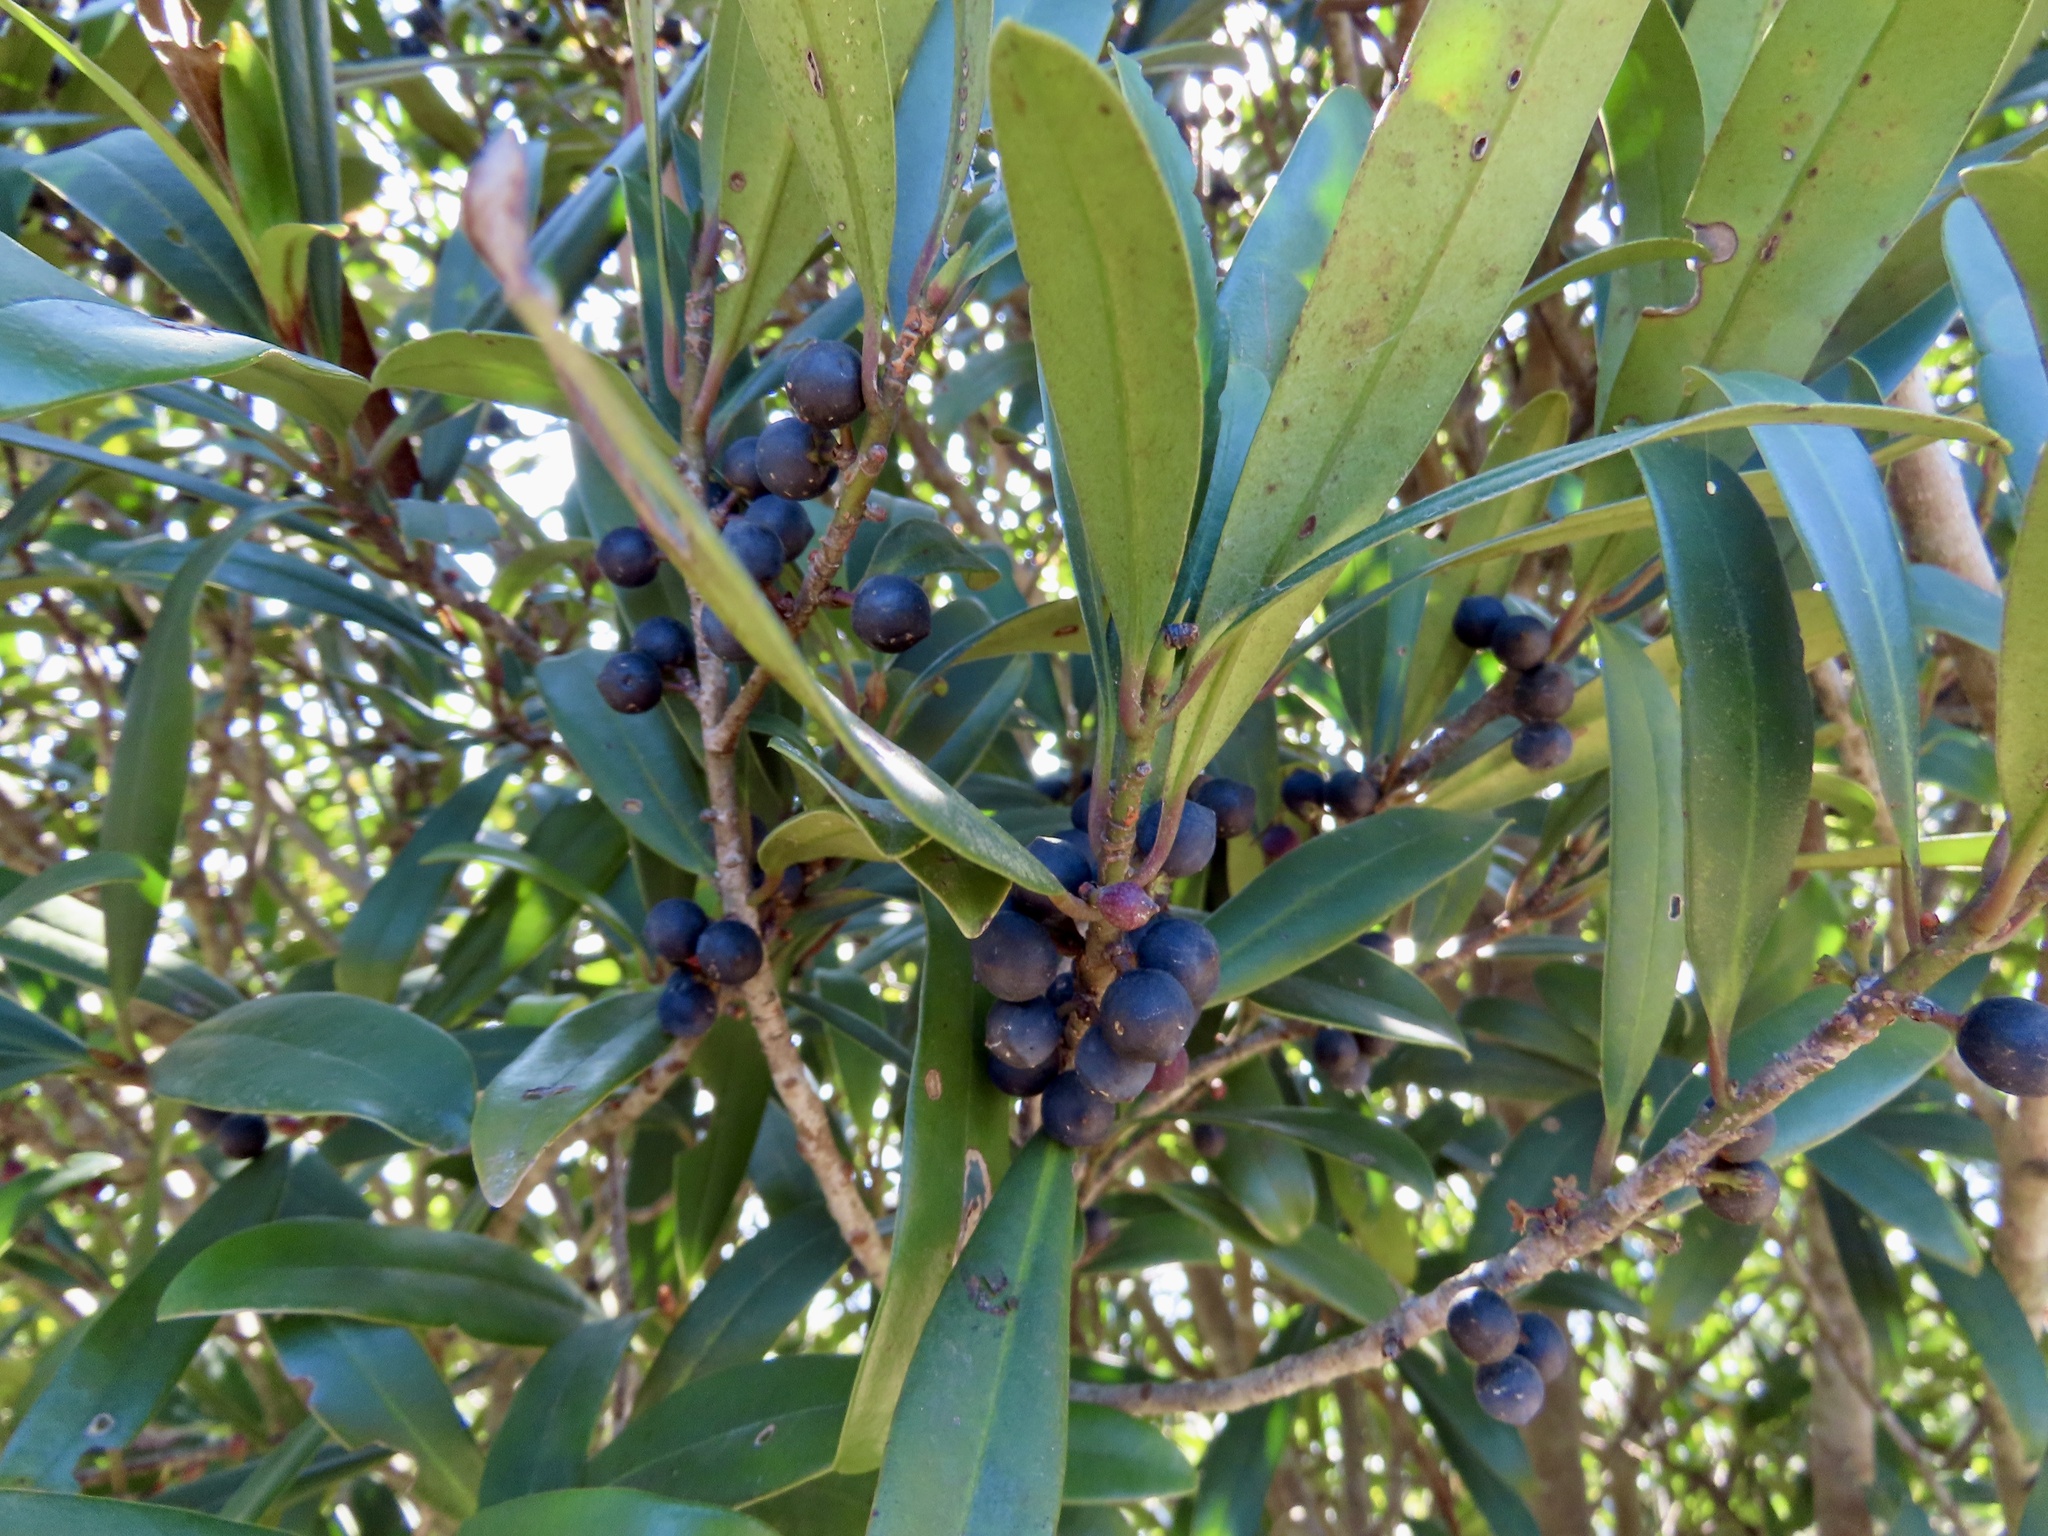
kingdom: Plantae
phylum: Tracheophyta
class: Magnoliopsida
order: Ericales
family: Primulaceae
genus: Myrsine
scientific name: Myrsine seguinii
